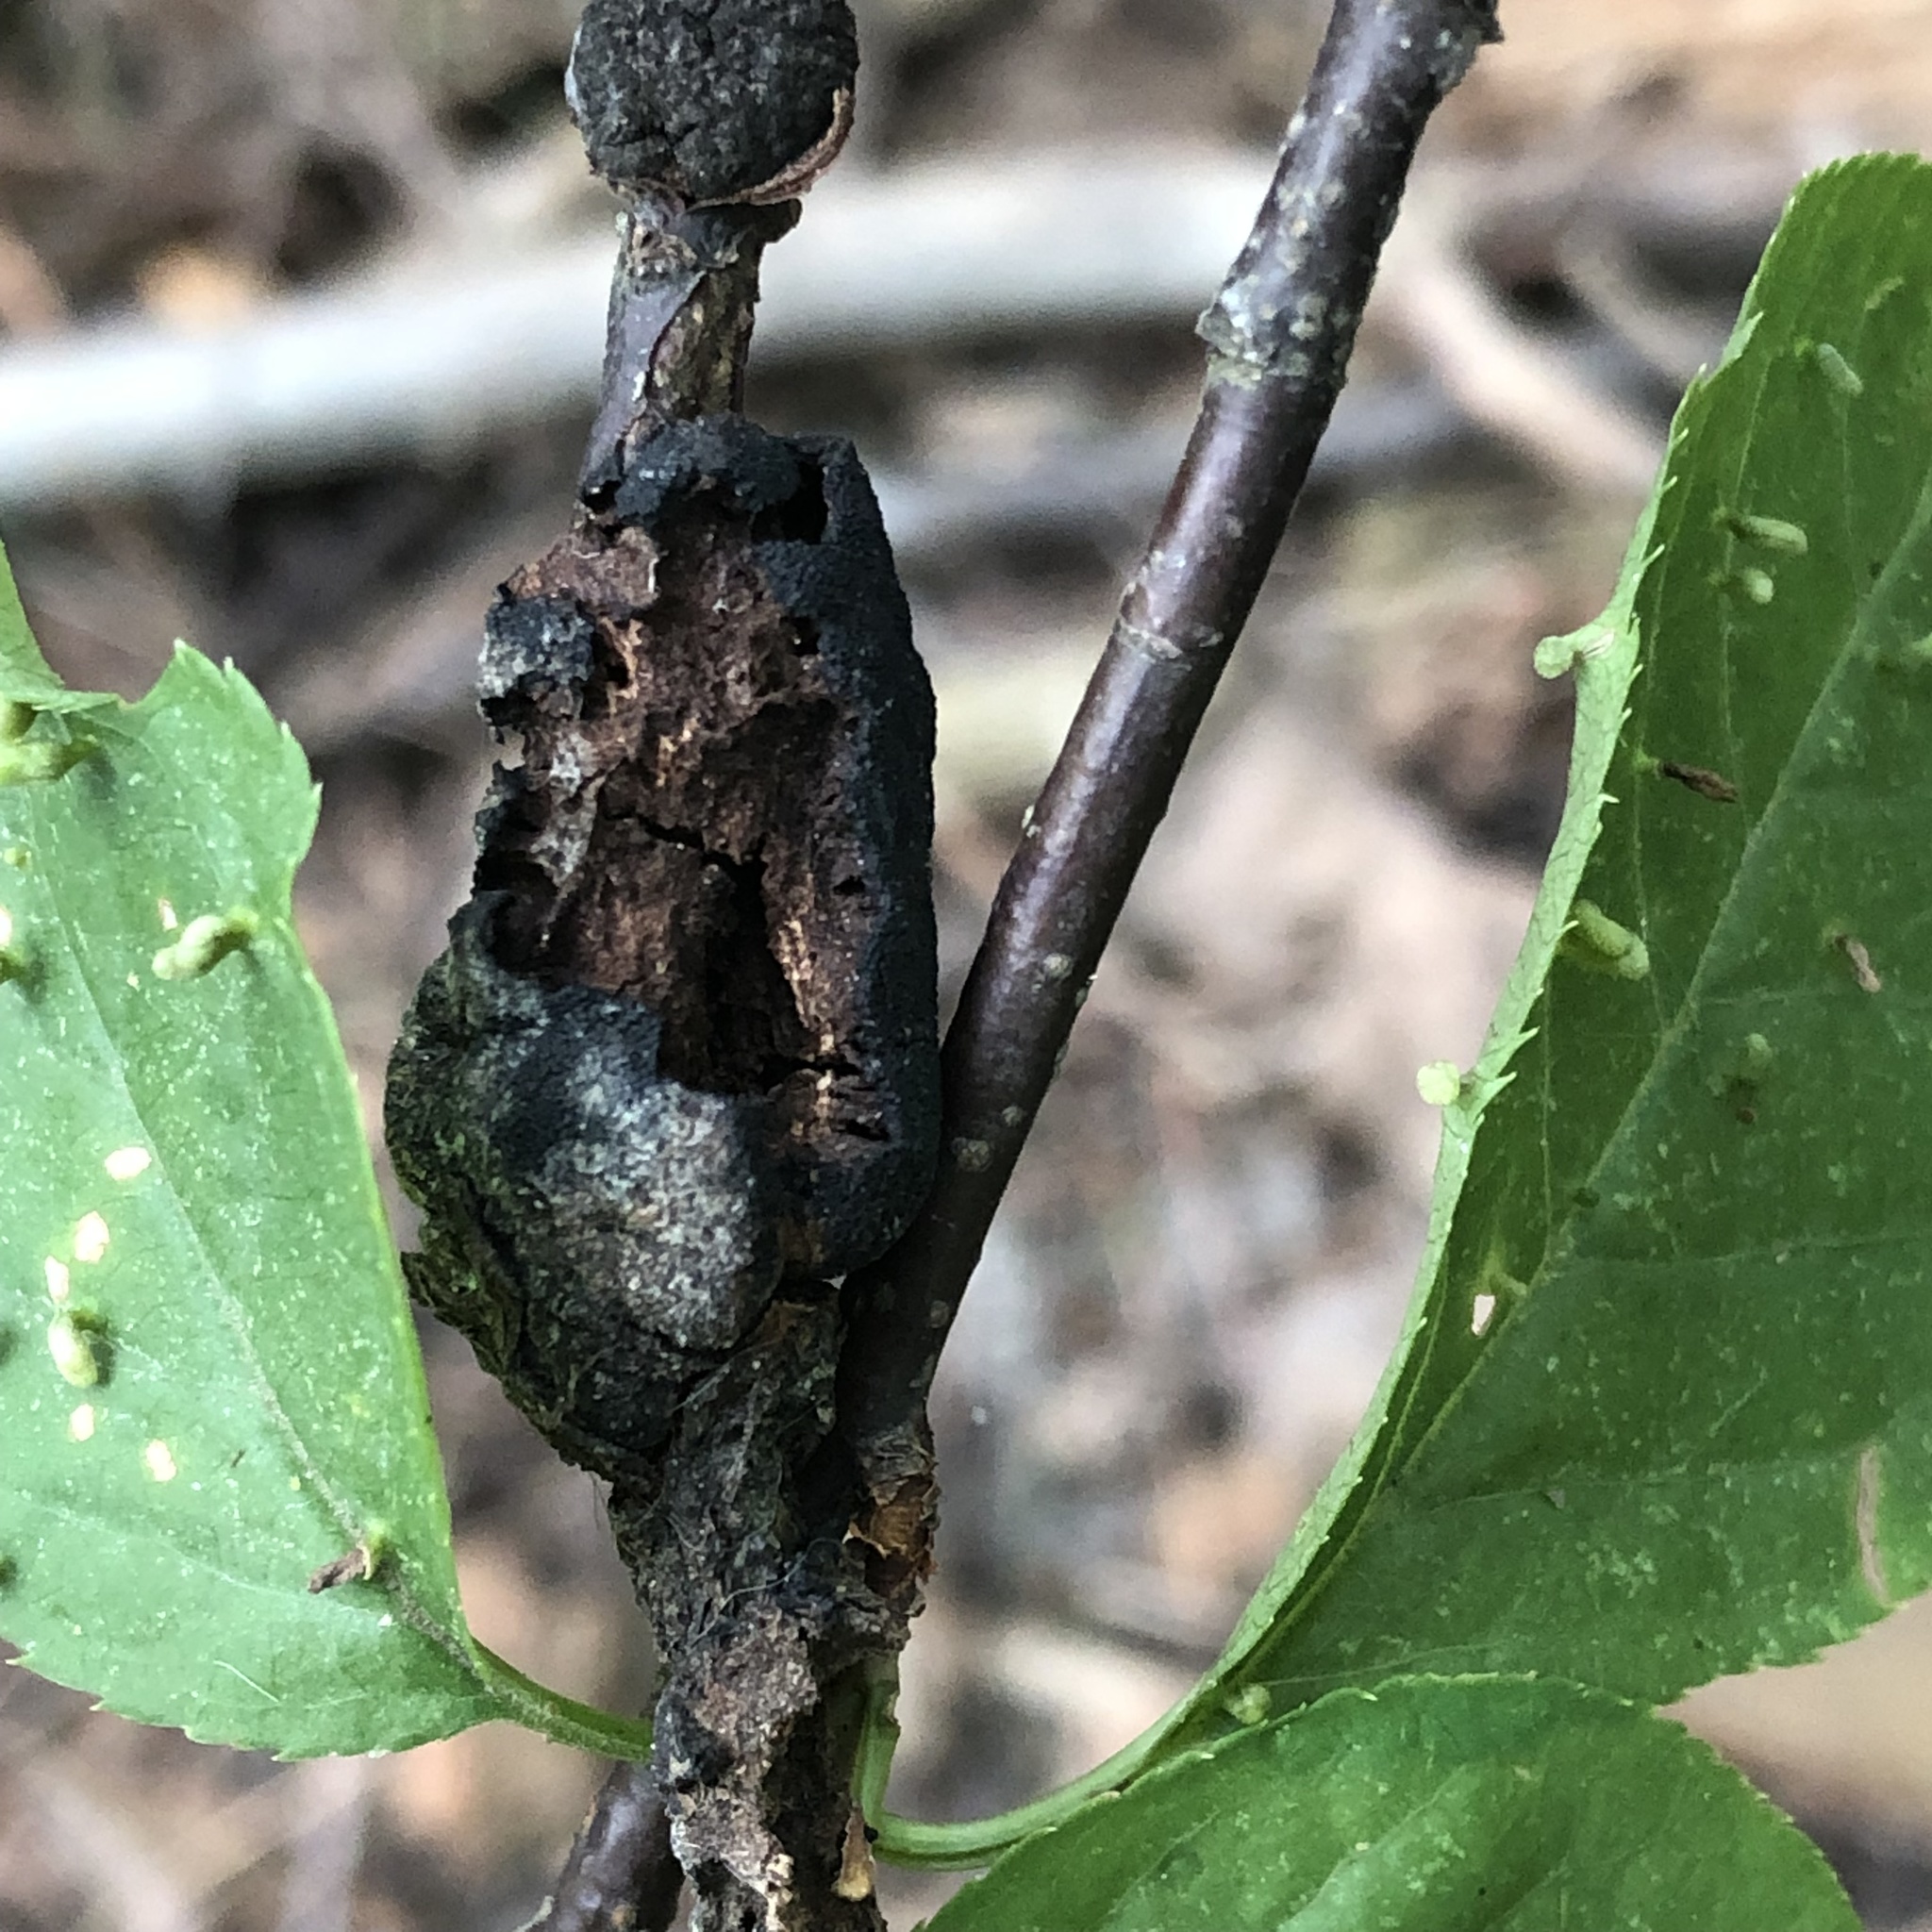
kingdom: Fungi
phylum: Ascomycota
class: Dothideomycetes
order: Venturiales
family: Venturiaceae
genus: Apiosporina
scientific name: Apiosporina morbosa
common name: Black knot
